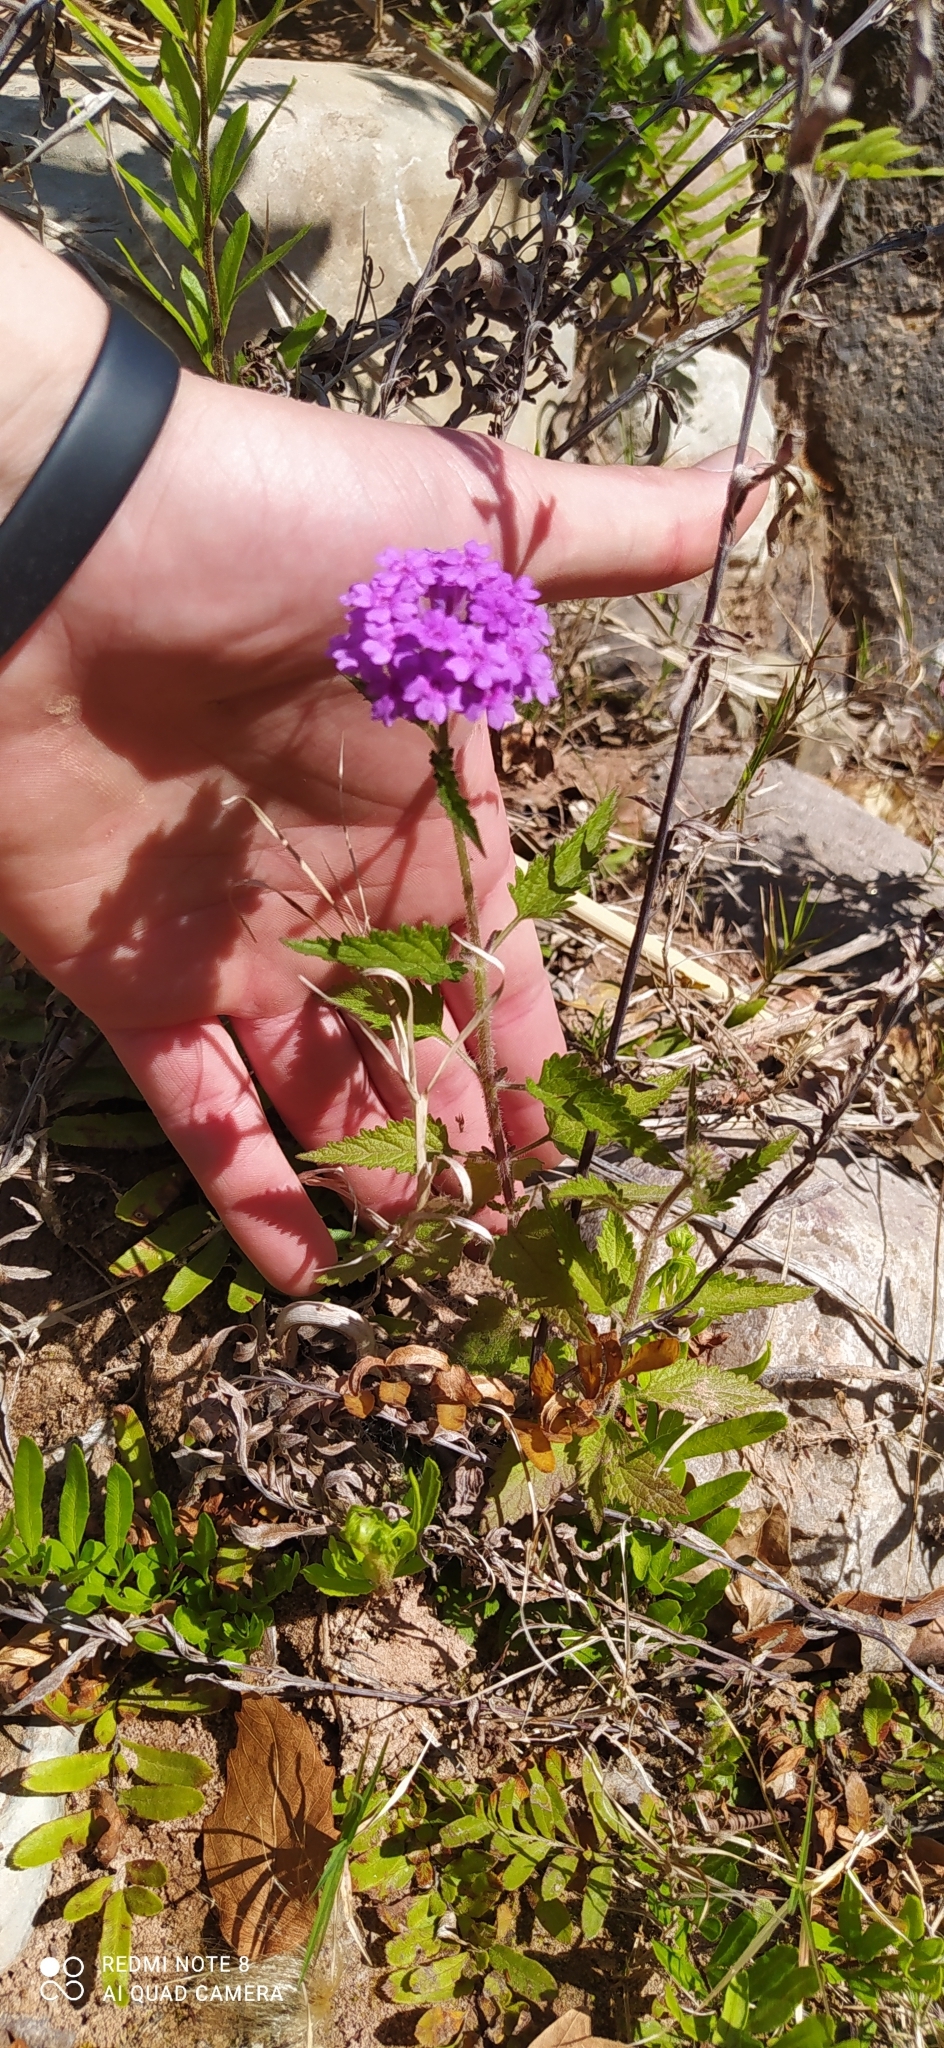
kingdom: Plantae
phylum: Tracheophyta
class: Magnoliopsida
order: Lamiales
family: Verbenaceae
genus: Verbena
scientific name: Verbena scrobiculata
